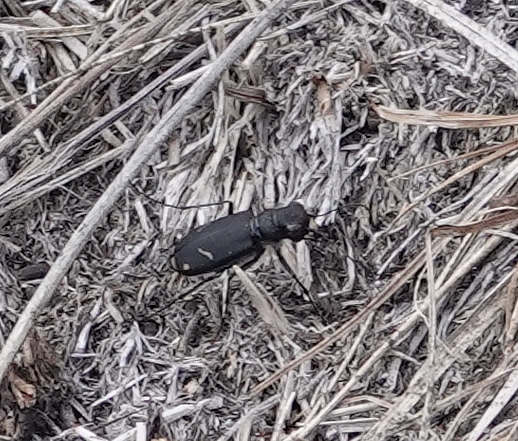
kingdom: Animalia
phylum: Arthropoda
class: Insecta
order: Coleoptera
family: Carabidae
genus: Cicindela
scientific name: Cicindela purpurea
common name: Cow path tiger beetle
